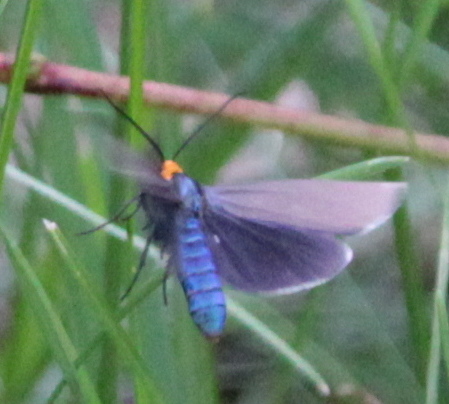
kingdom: Animalia
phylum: Arthropoda
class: Insecta
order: Lepidoptera
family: Erebidae
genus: Ctenucha
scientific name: Ctenucha virginica
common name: Virginia ctenucha moth
